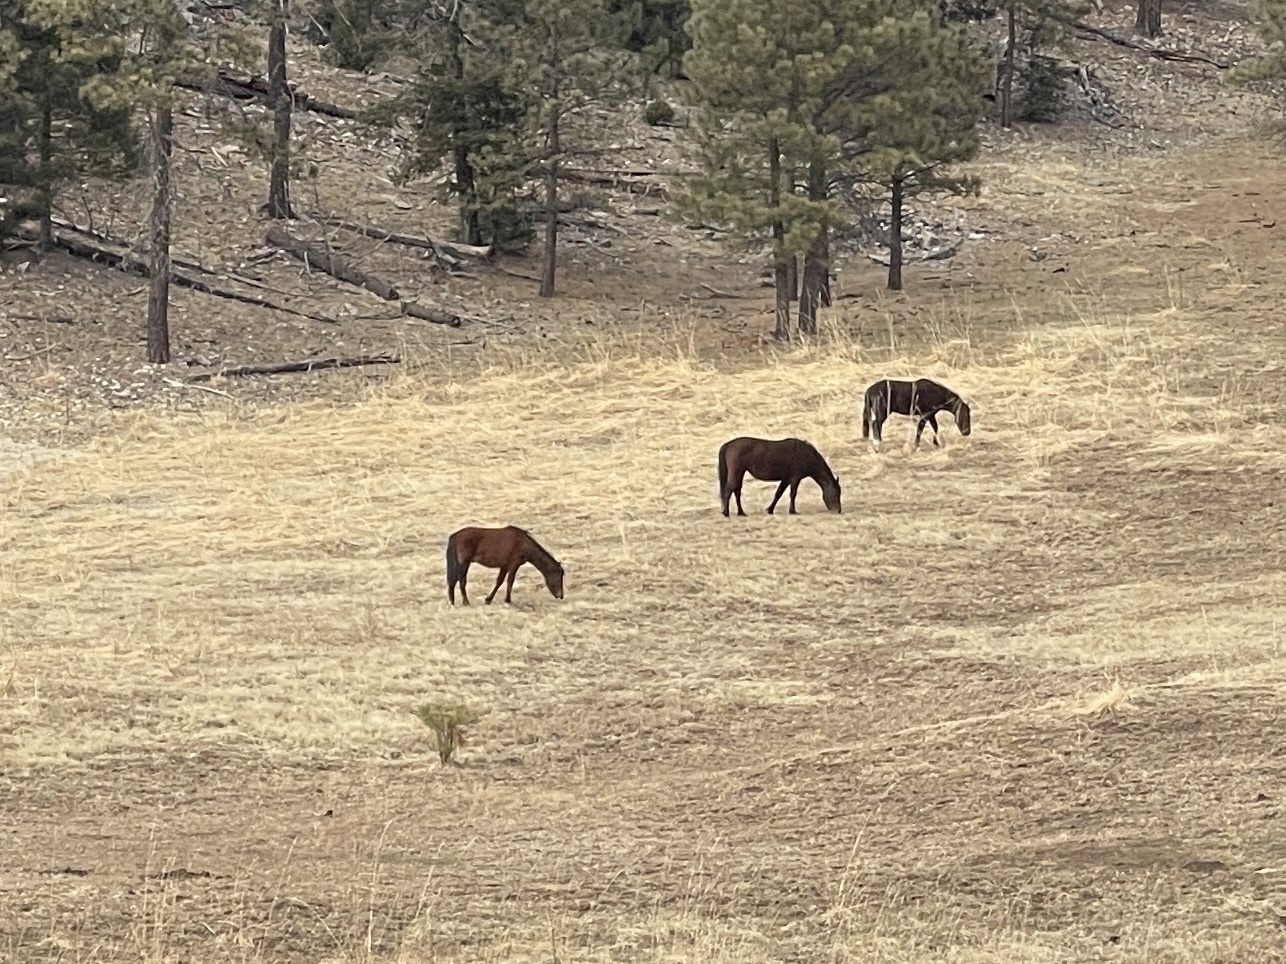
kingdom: Animalia
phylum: Chordata
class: Mammalia
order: Perissodactyla
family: Equidae
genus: Equus
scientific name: Equus caballus
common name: Horse
